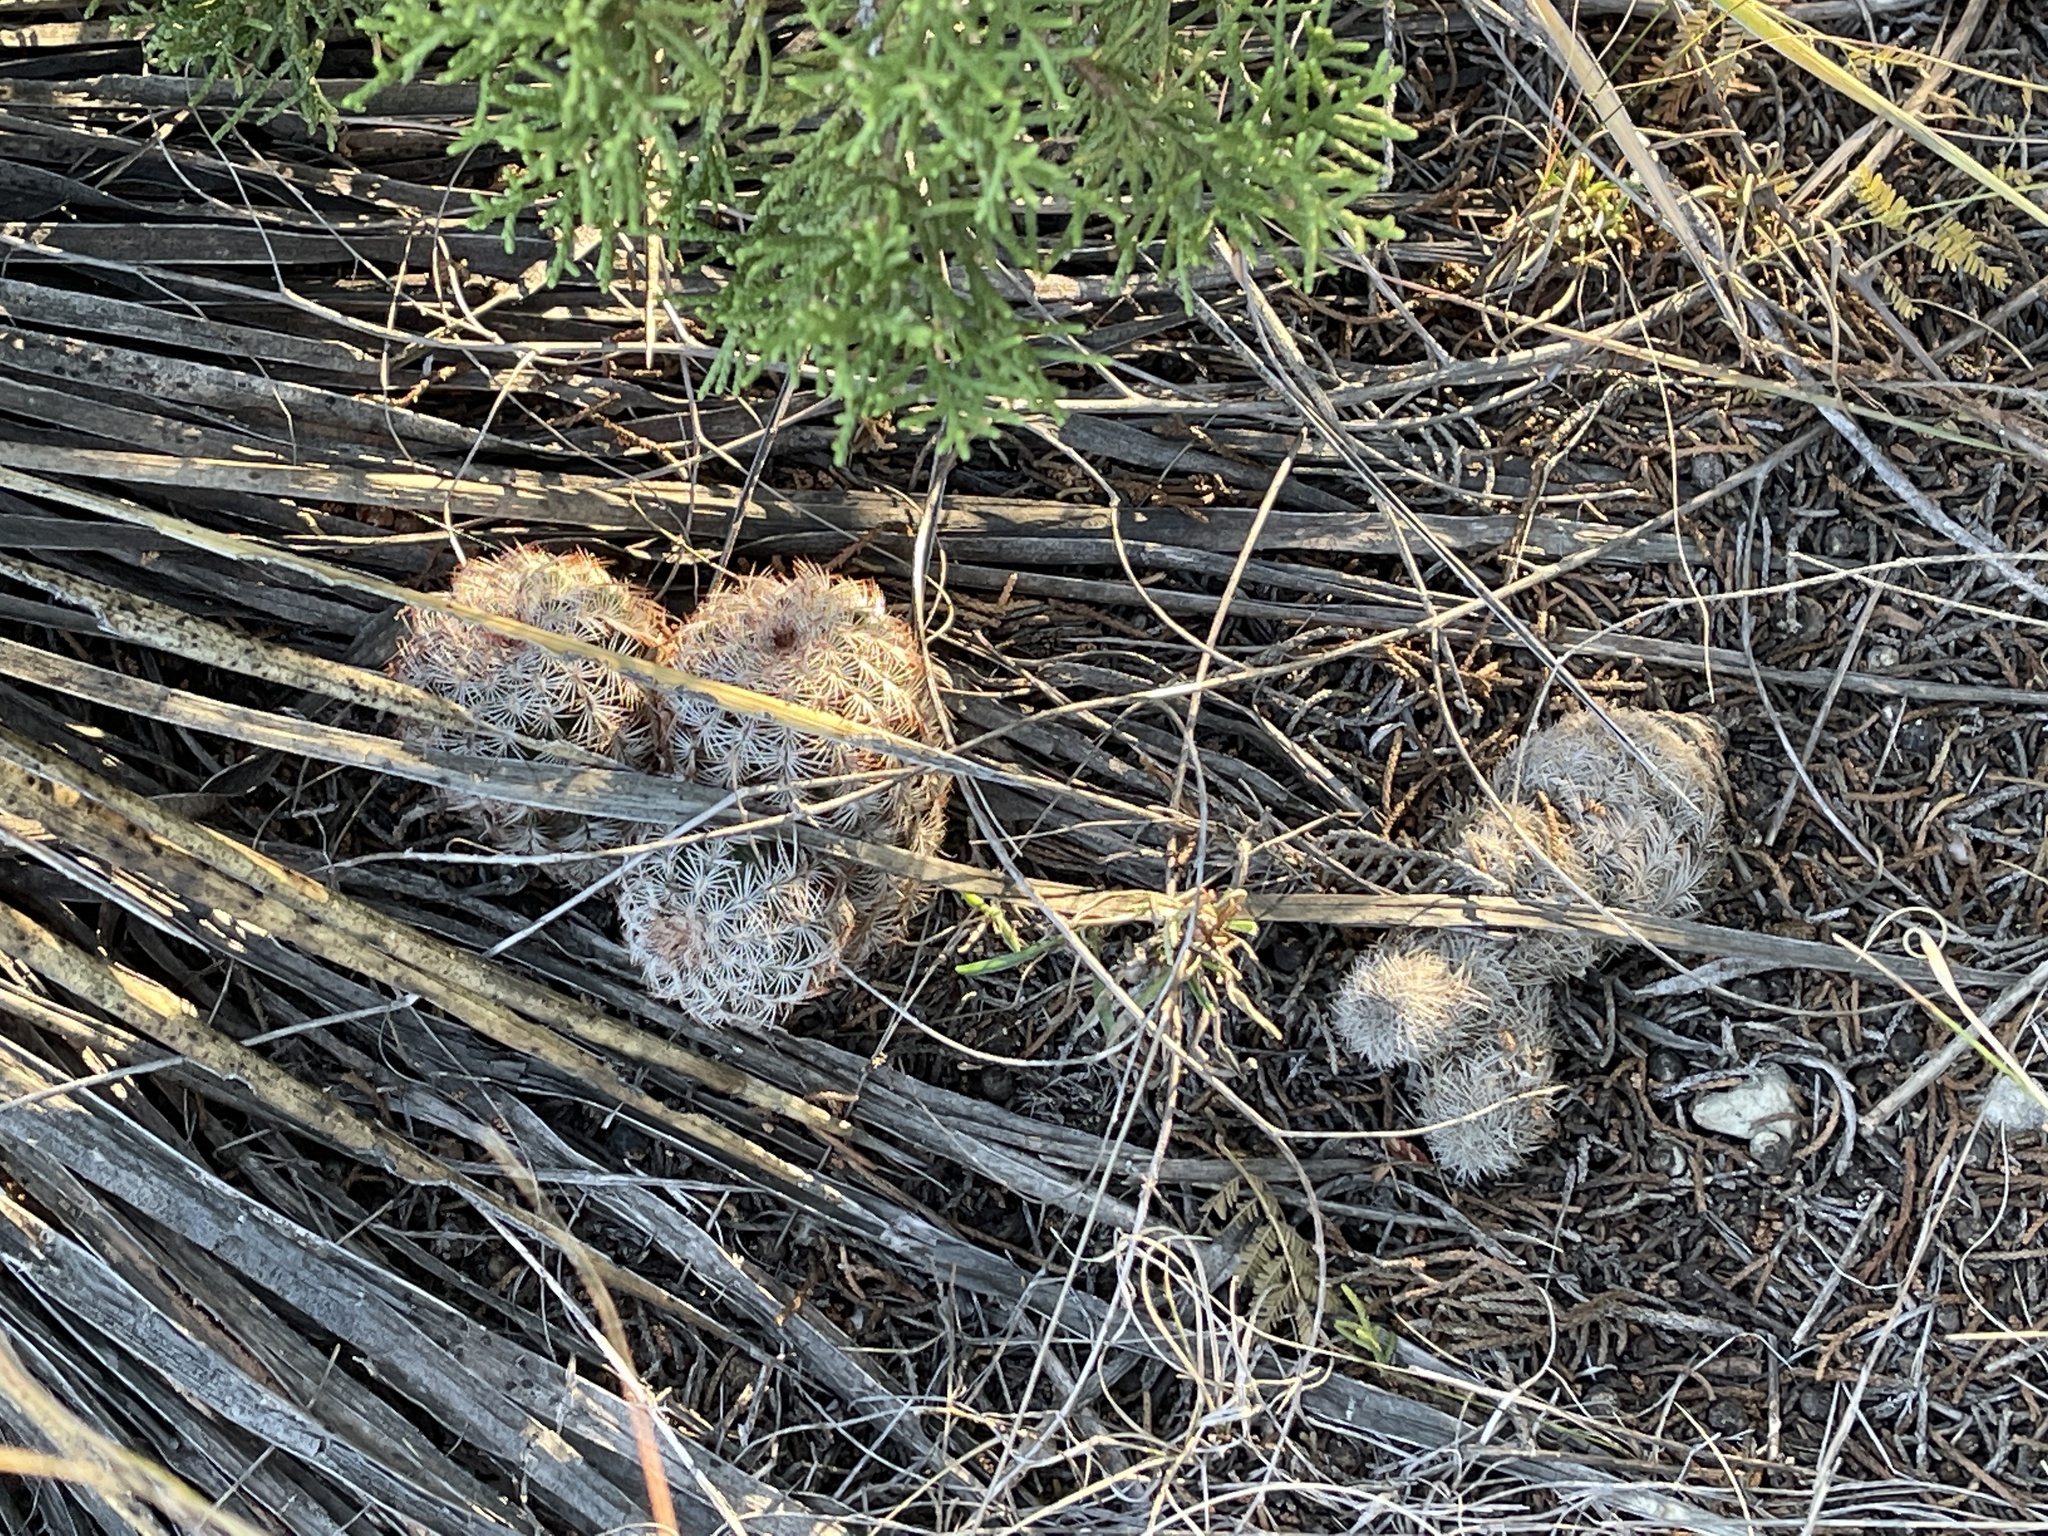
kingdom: Plantae
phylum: Tracheophyta
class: Magnoliopsida
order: Caryophyllales
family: Cactaceae
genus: Echinocereus
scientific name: Echinocereus reichenbachii
